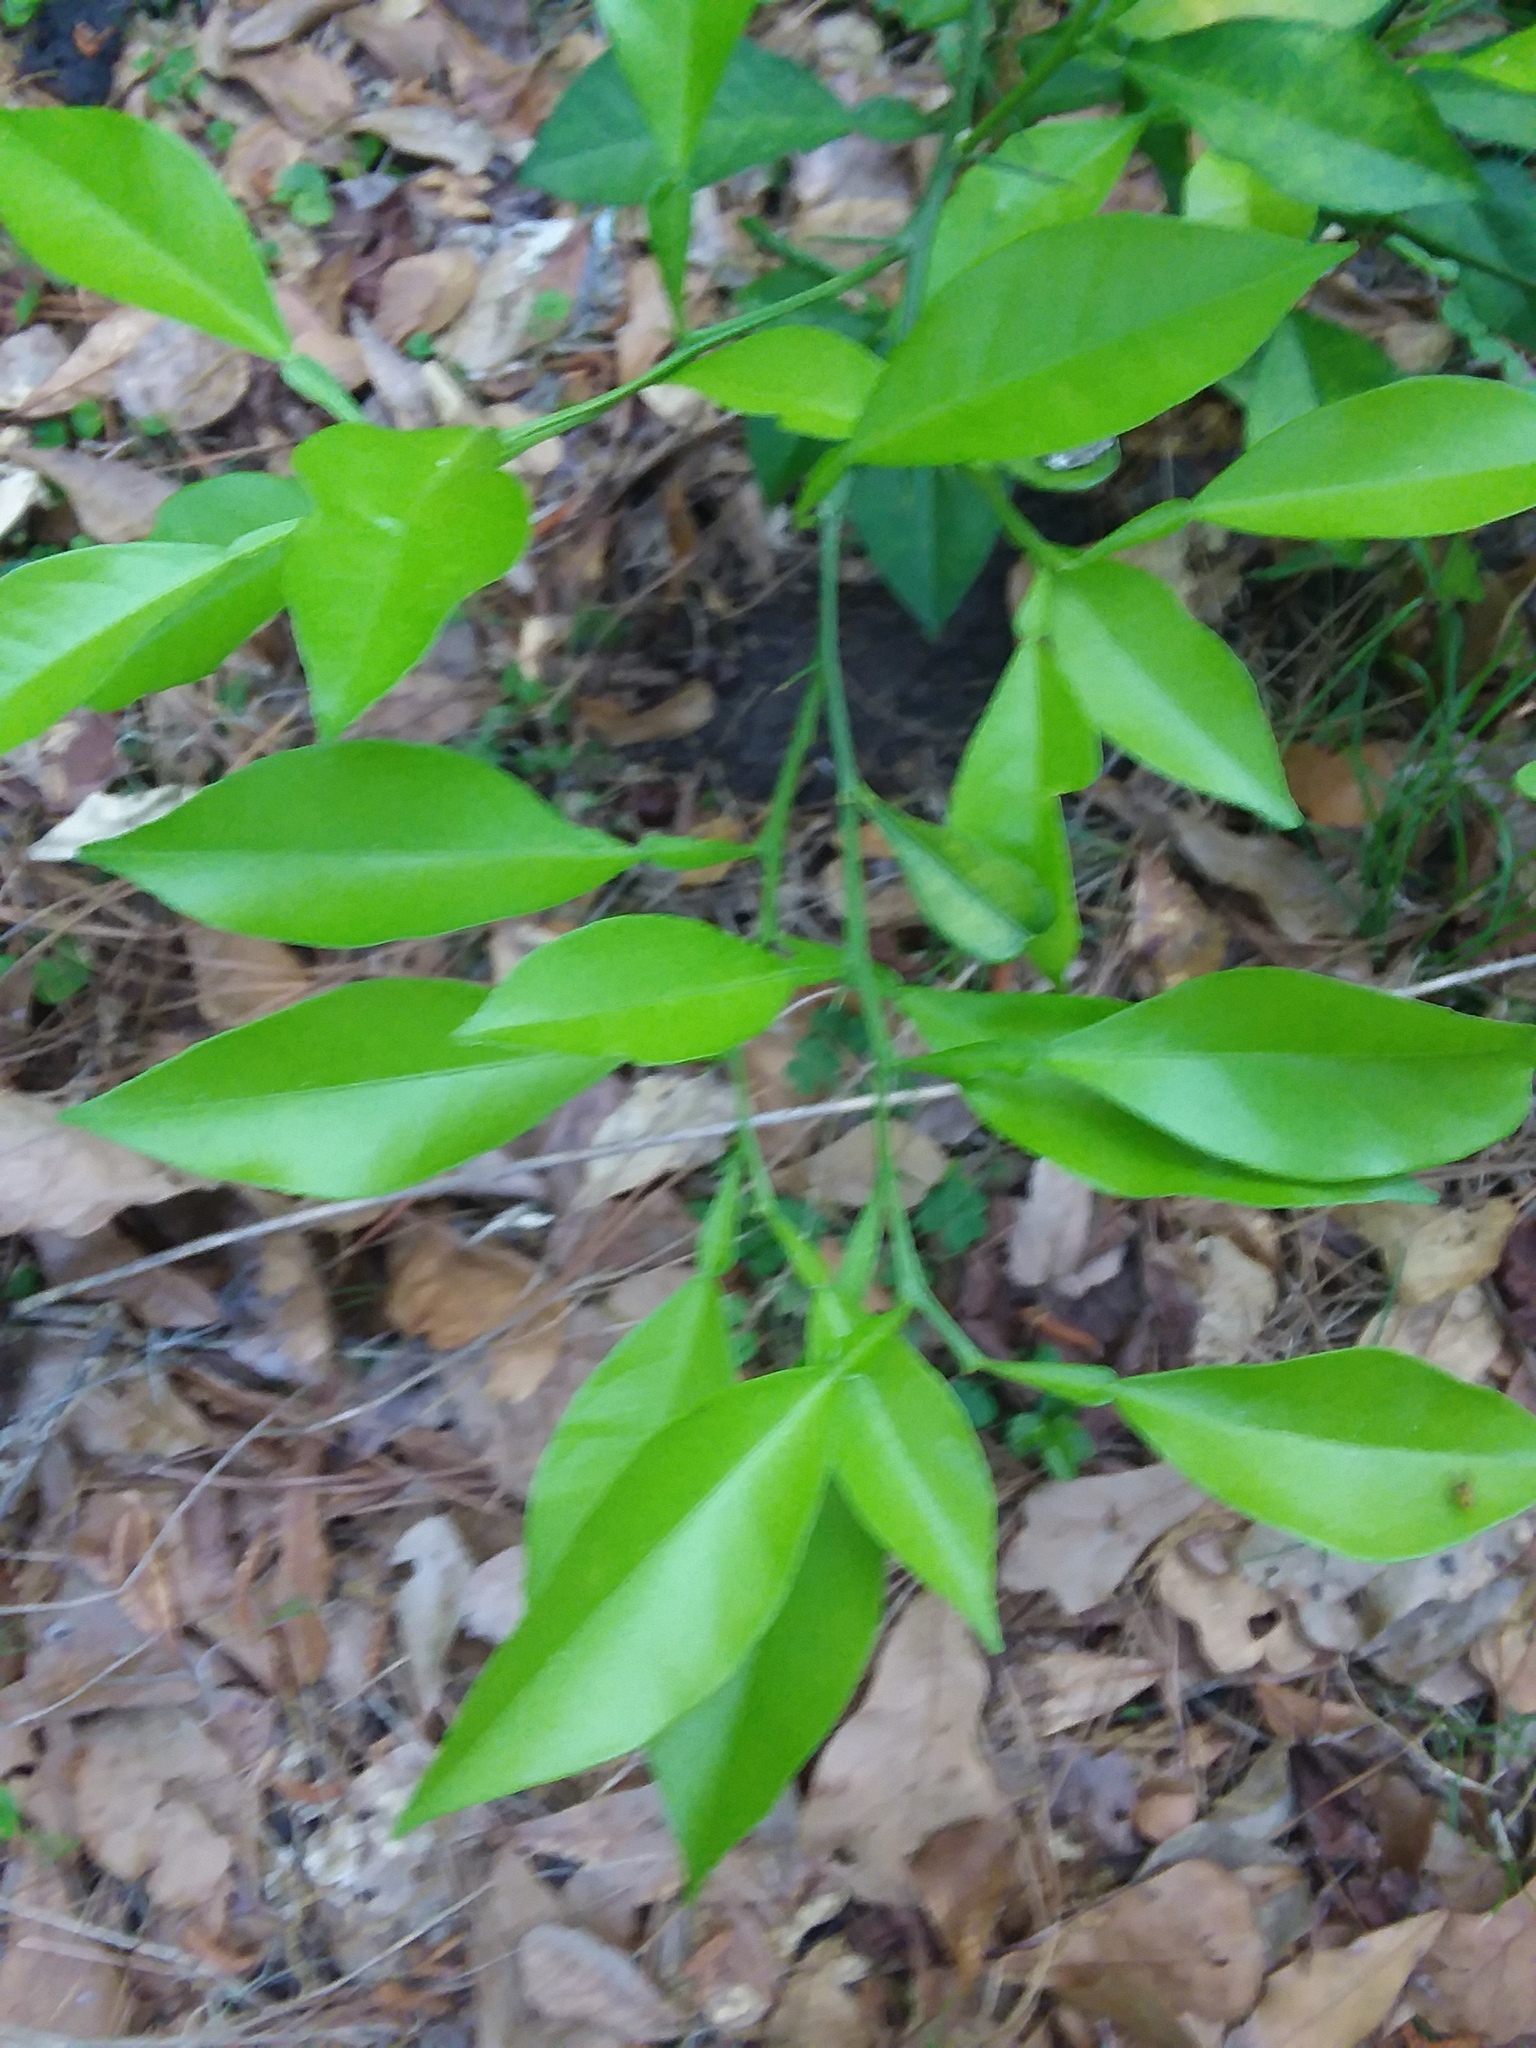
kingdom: Plantae
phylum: Tracheophyta
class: Magnoliopsida
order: Sapindales
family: Rutaceae
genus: Citrus
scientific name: Citrus aurantium
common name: Sour orange
